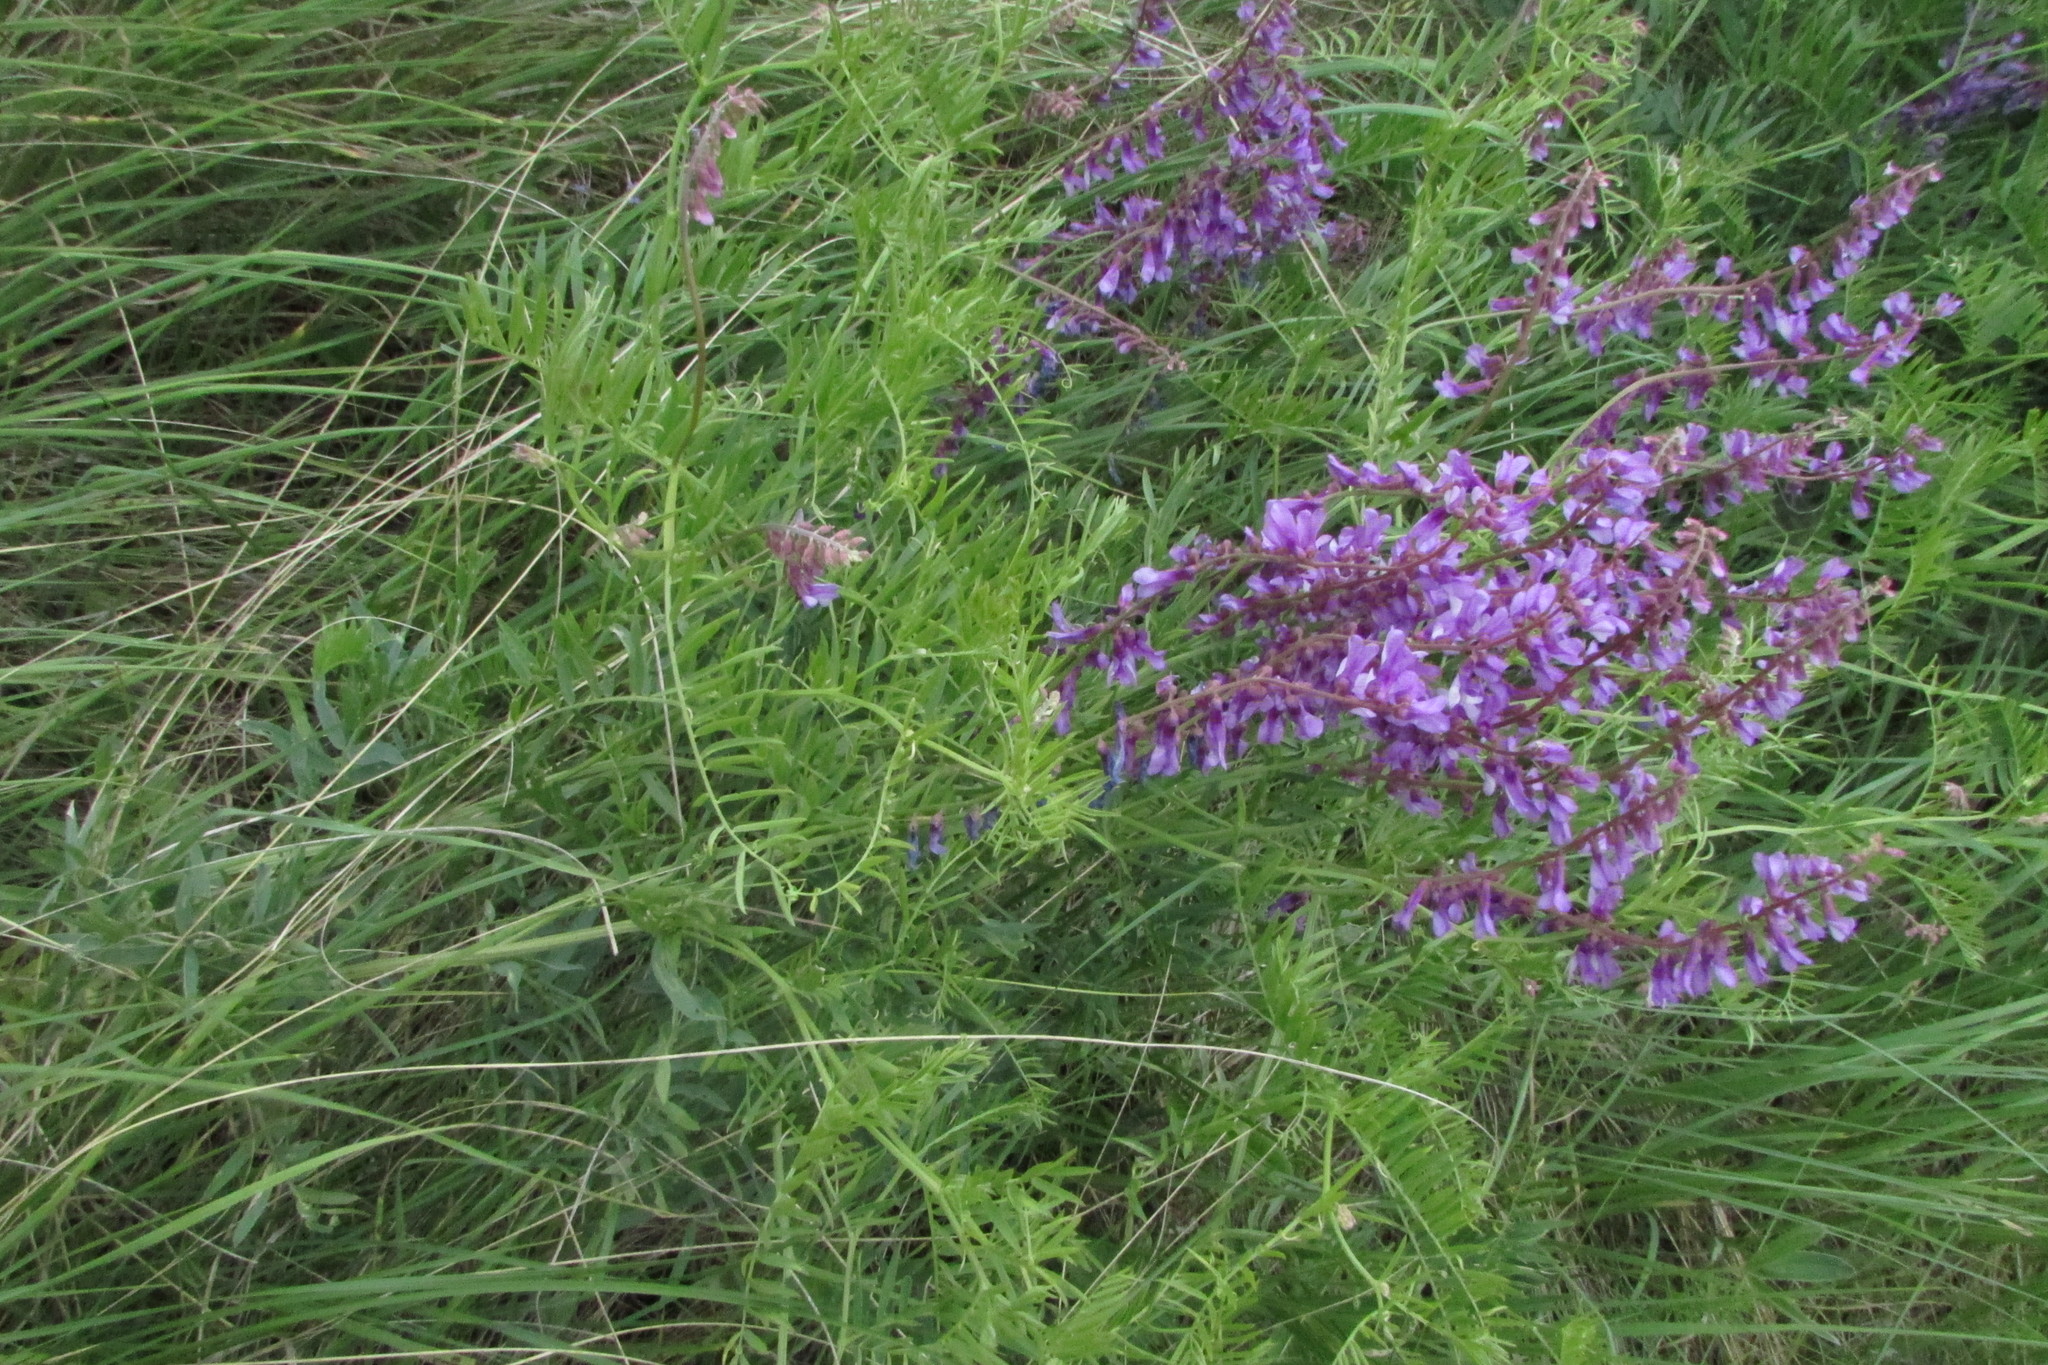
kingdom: Plantae
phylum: Tracheophyta
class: Magnoliopsida
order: Fabales
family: Fabaceae
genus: Vicia
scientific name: Vicia tenuifolia
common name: Fine-leaved vetch
